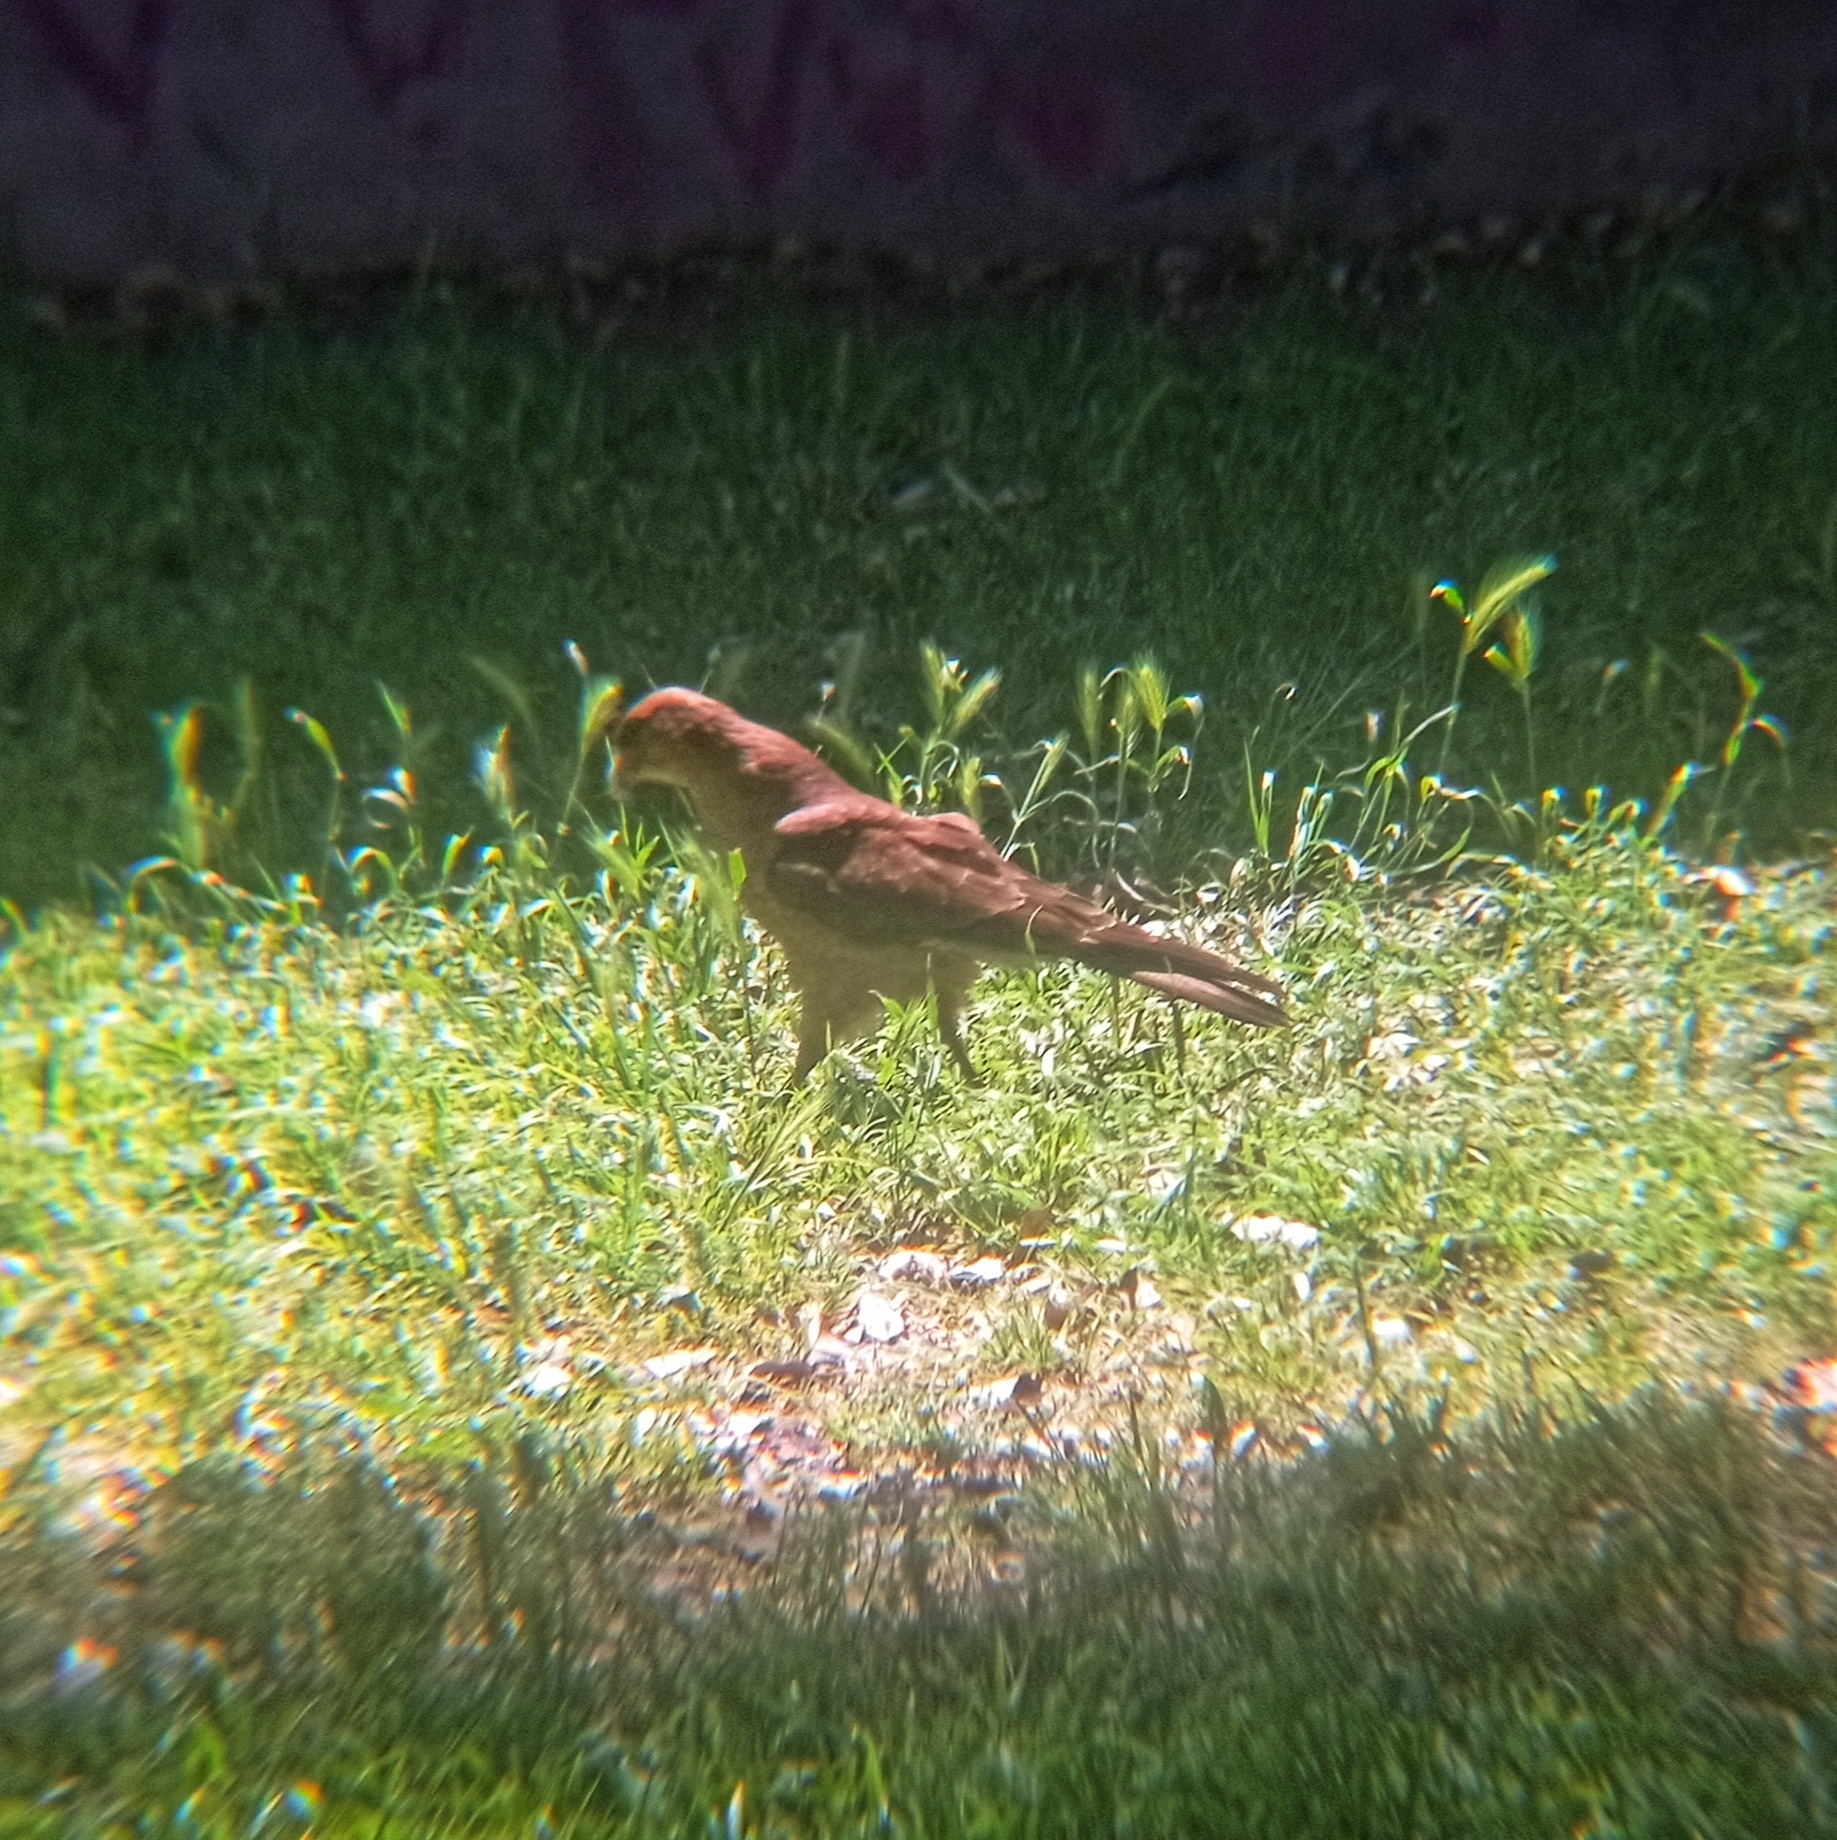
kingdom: Animalia
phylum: Chordata
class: Aves
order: Falconiformes
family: Falconidae
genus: Daptrius
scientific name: Daptrius
